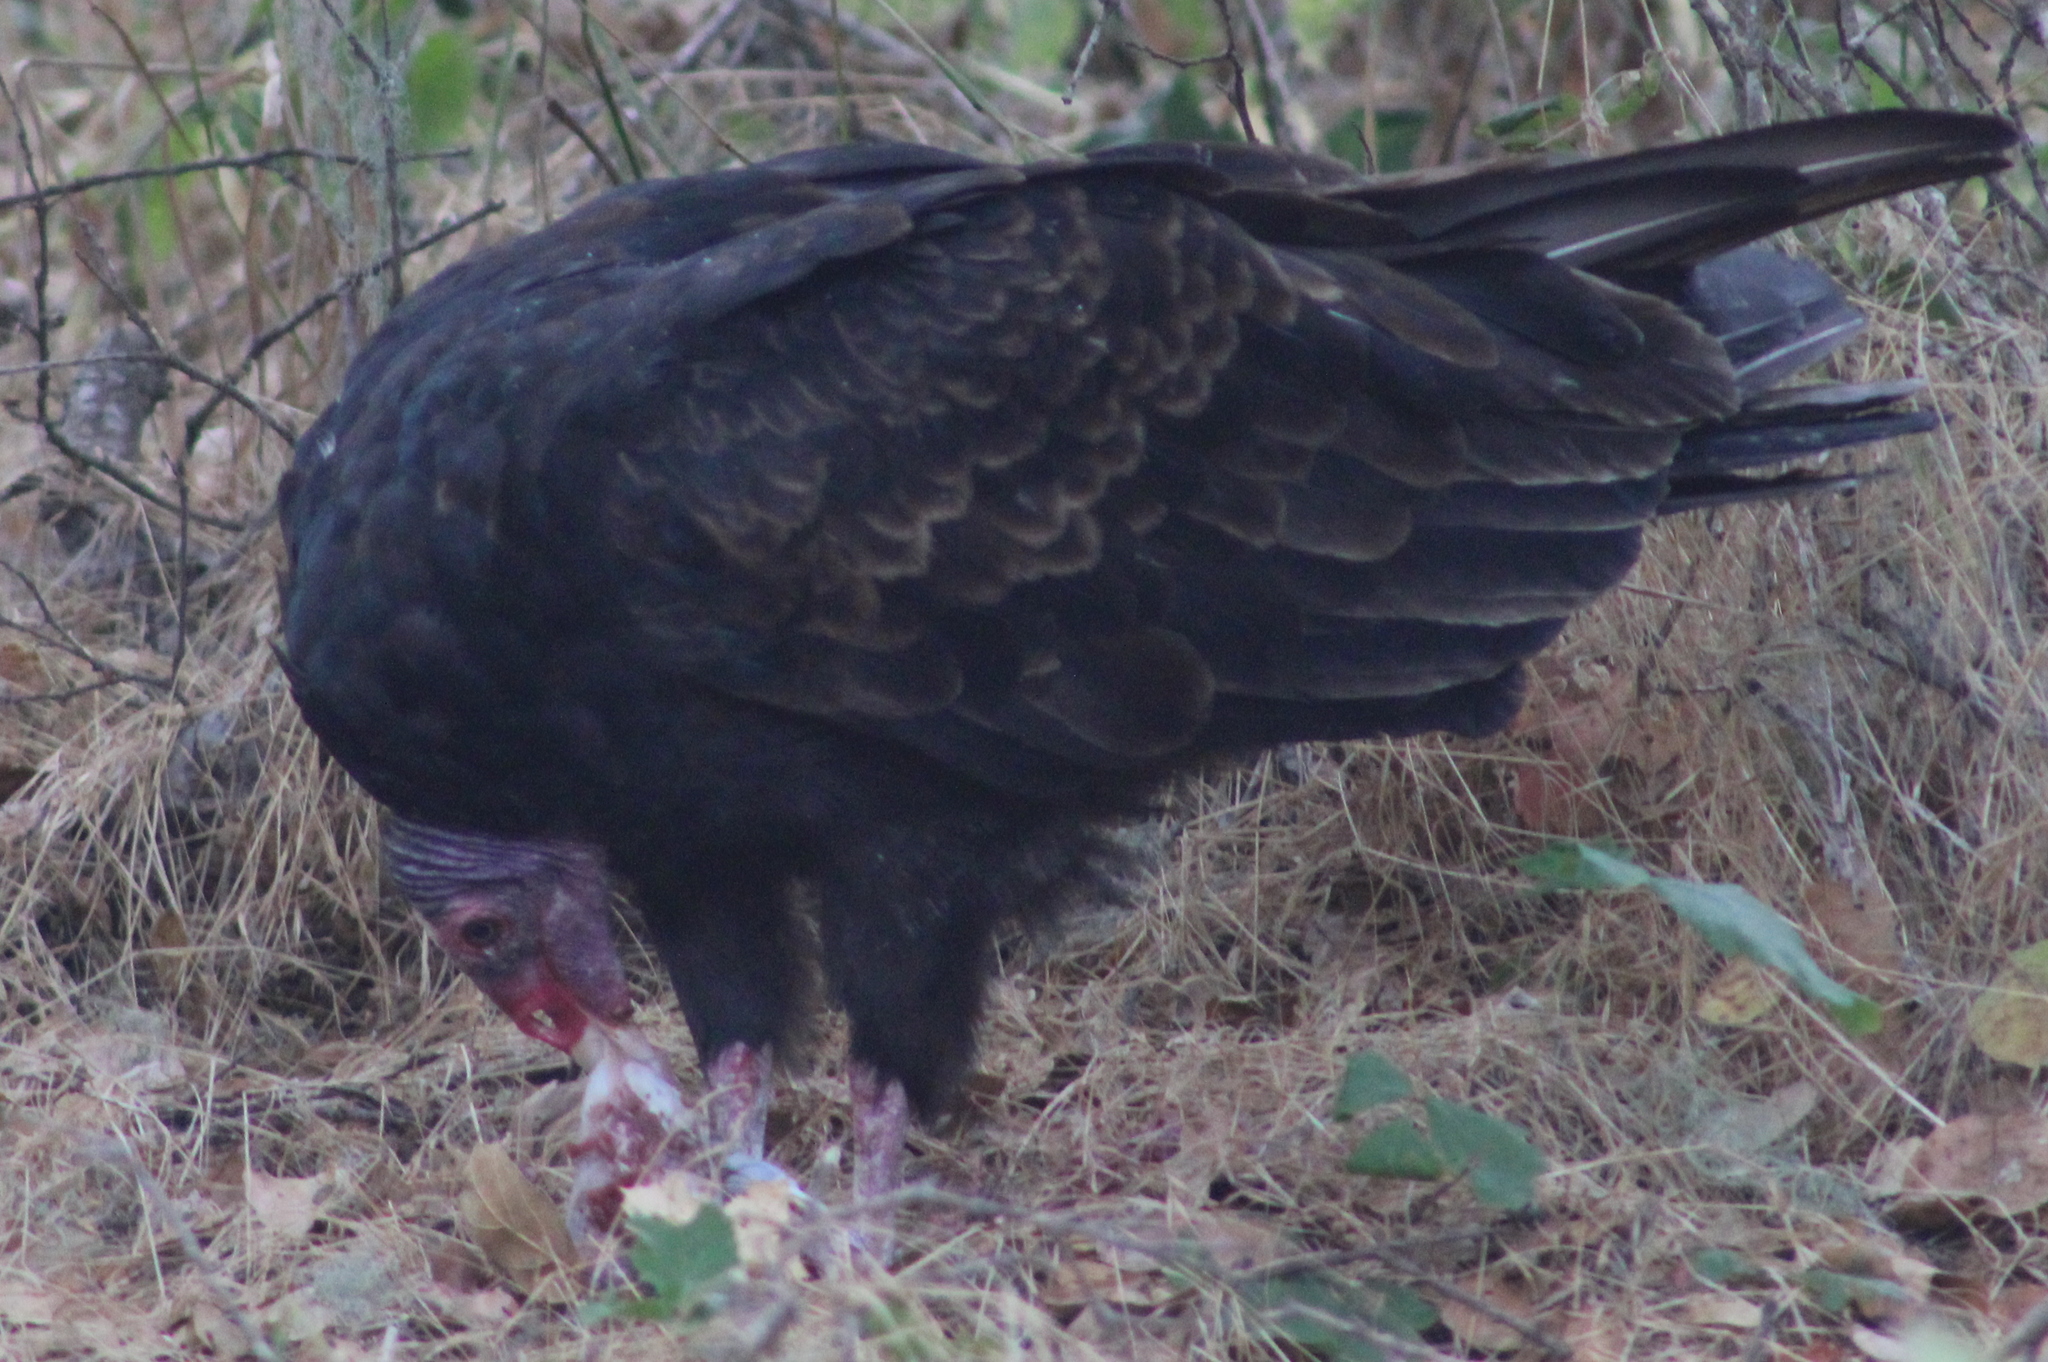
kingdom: Animalia
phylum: Chordata
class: Aves
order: Accipitriformes
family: Cathartidae
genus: Cathartes
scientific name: Cathartes aura
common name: Turkey vulture
